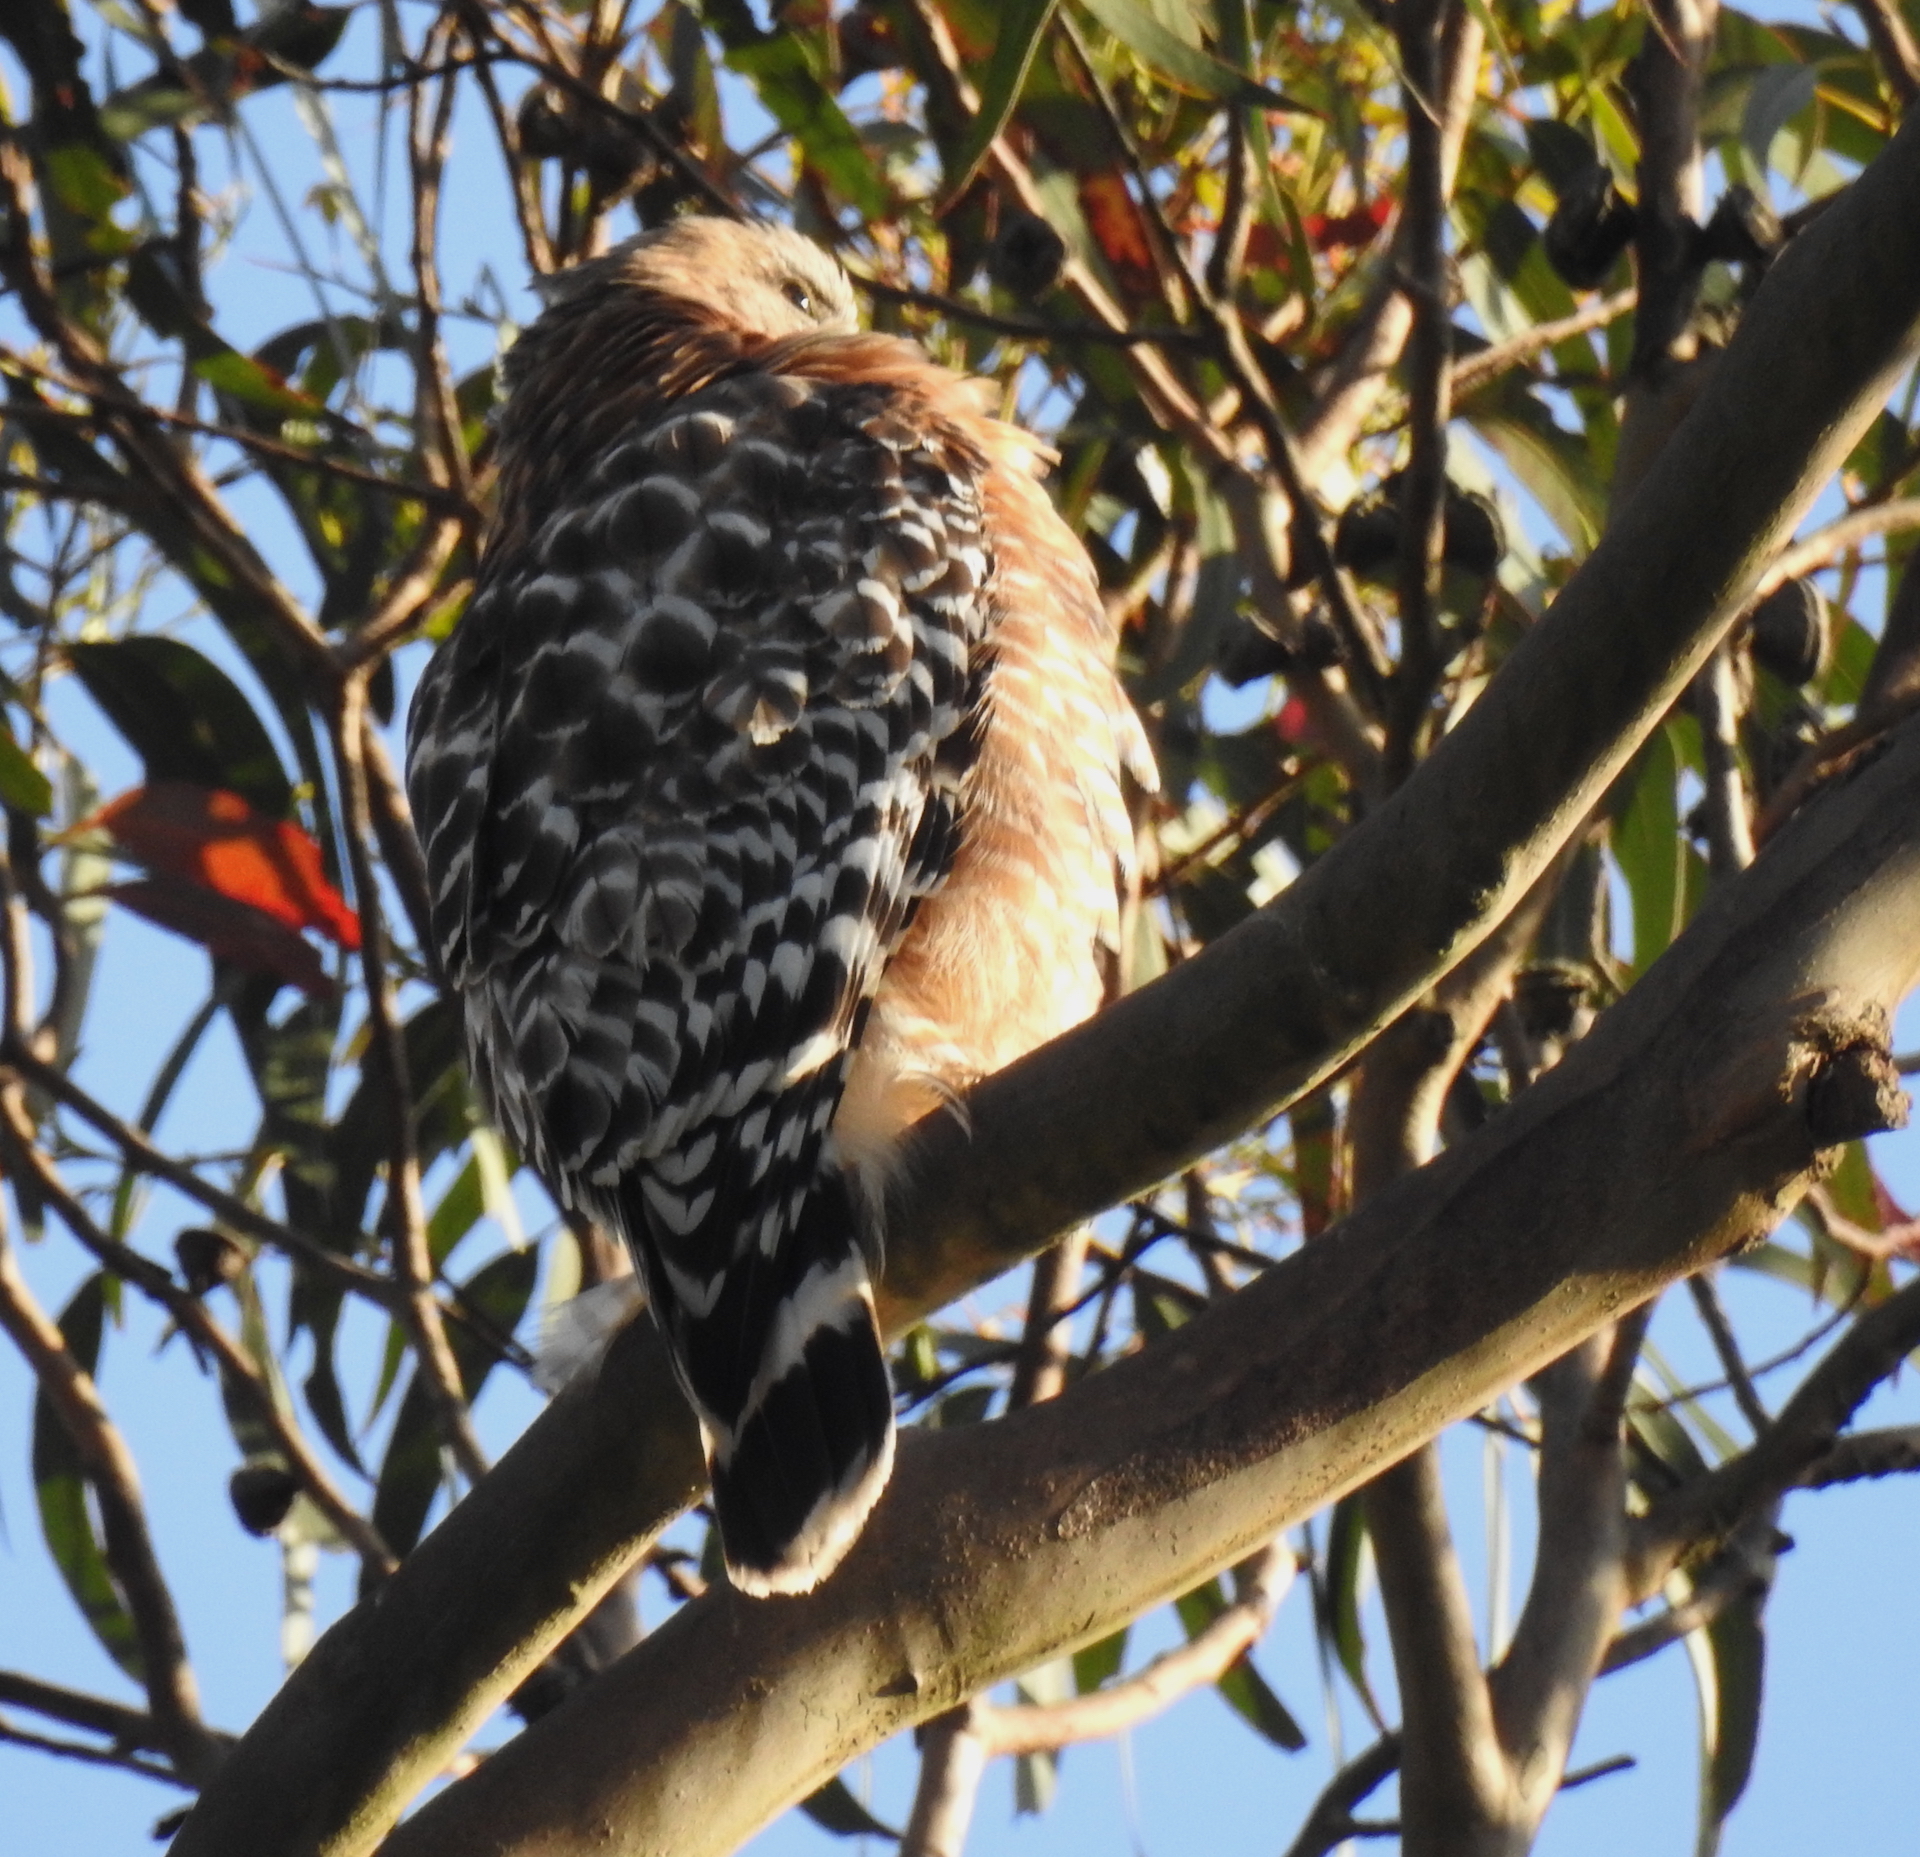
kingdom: Animalia
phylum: Chordata
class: Aves
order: Accipitriformes
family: Accipitridae
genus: Buteo
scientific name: Buteo lineatus
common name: Red-shouldered hawk
